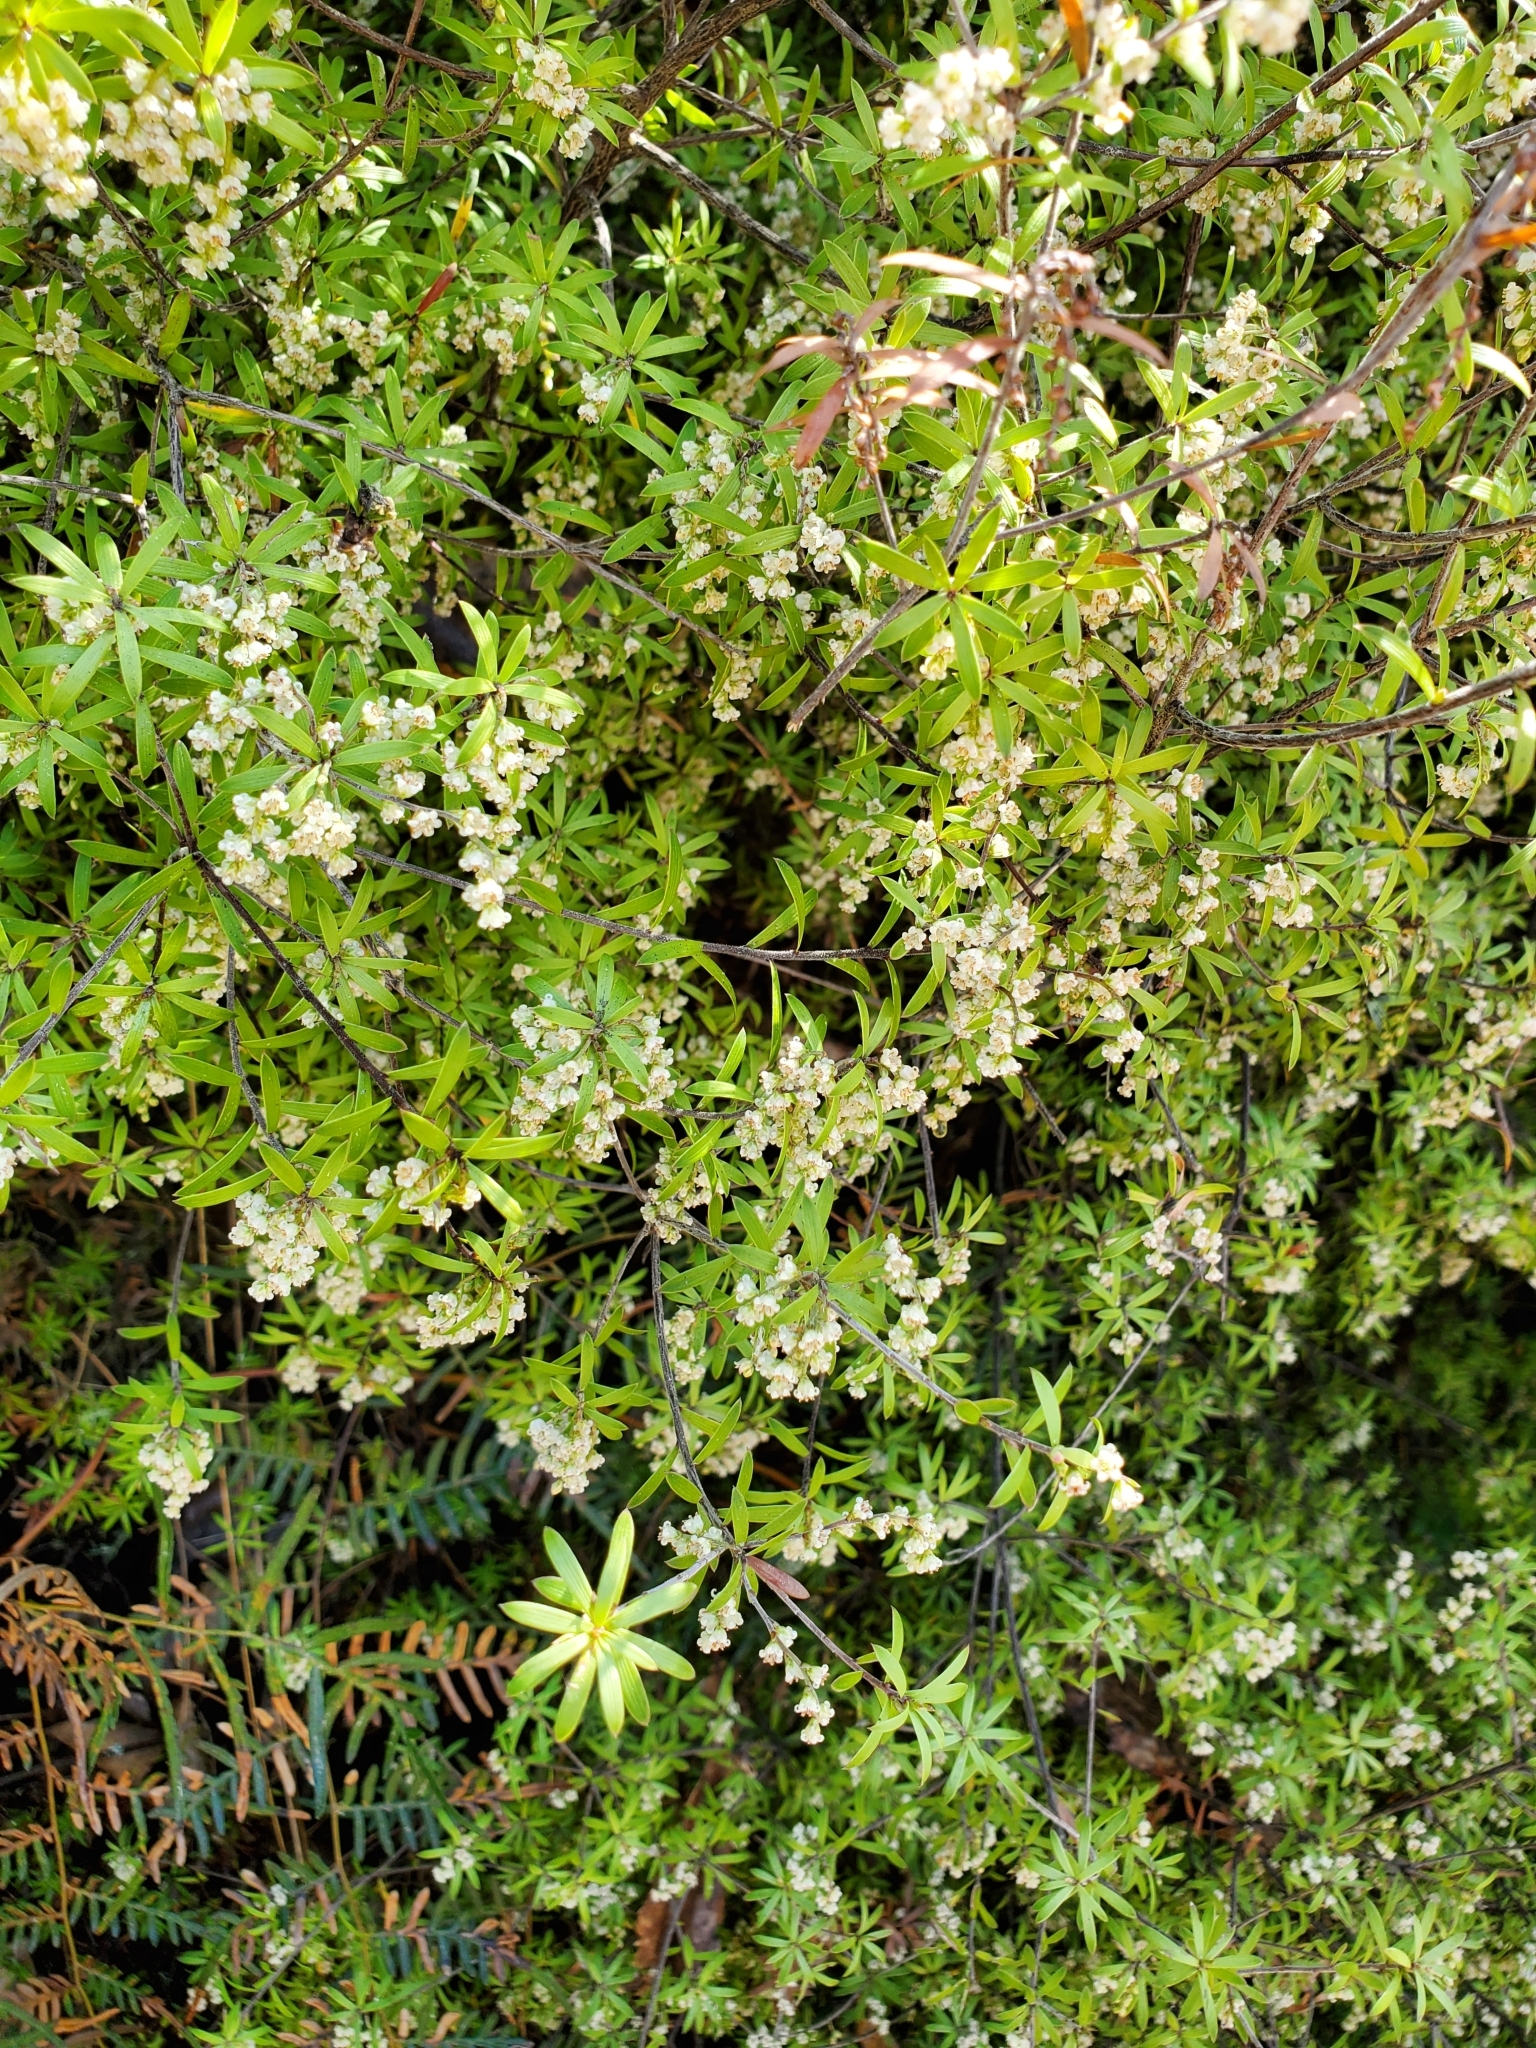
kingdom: Plantae
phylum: Tracheophyta
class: Magnoliopsida
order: Ericales
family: Ericaceae
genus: Leucopogon
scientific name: Leucopogon fasciculatus
